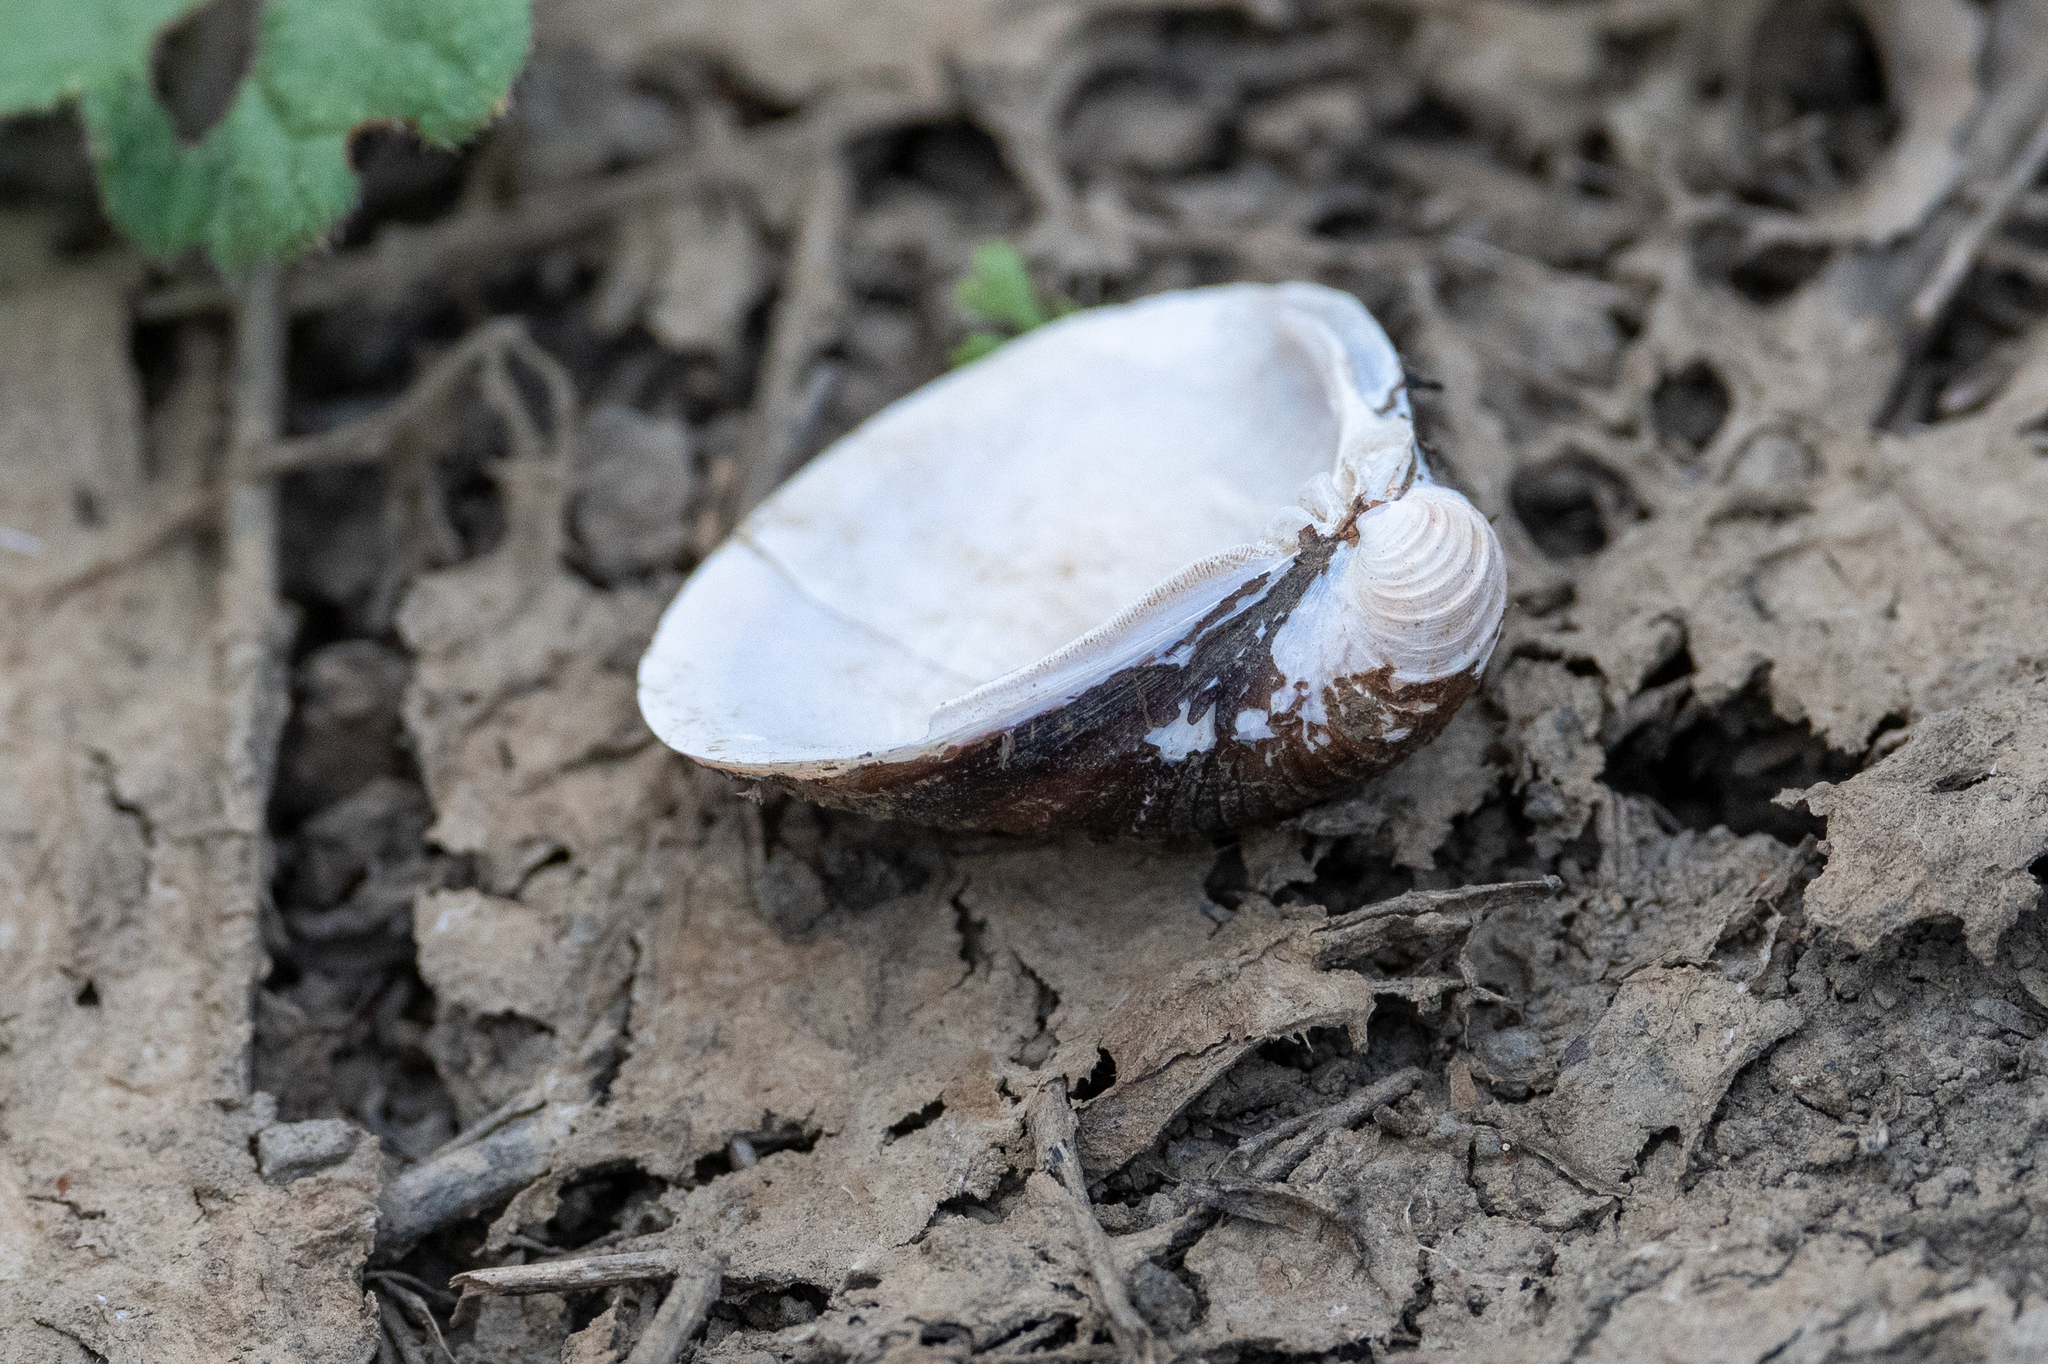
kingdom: Animalia
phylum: Mollusca
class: Bivalvia
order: Venerida
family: Cyrenidae
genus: Corbicula
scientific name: Corbicula fluminea
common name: Asian clam
